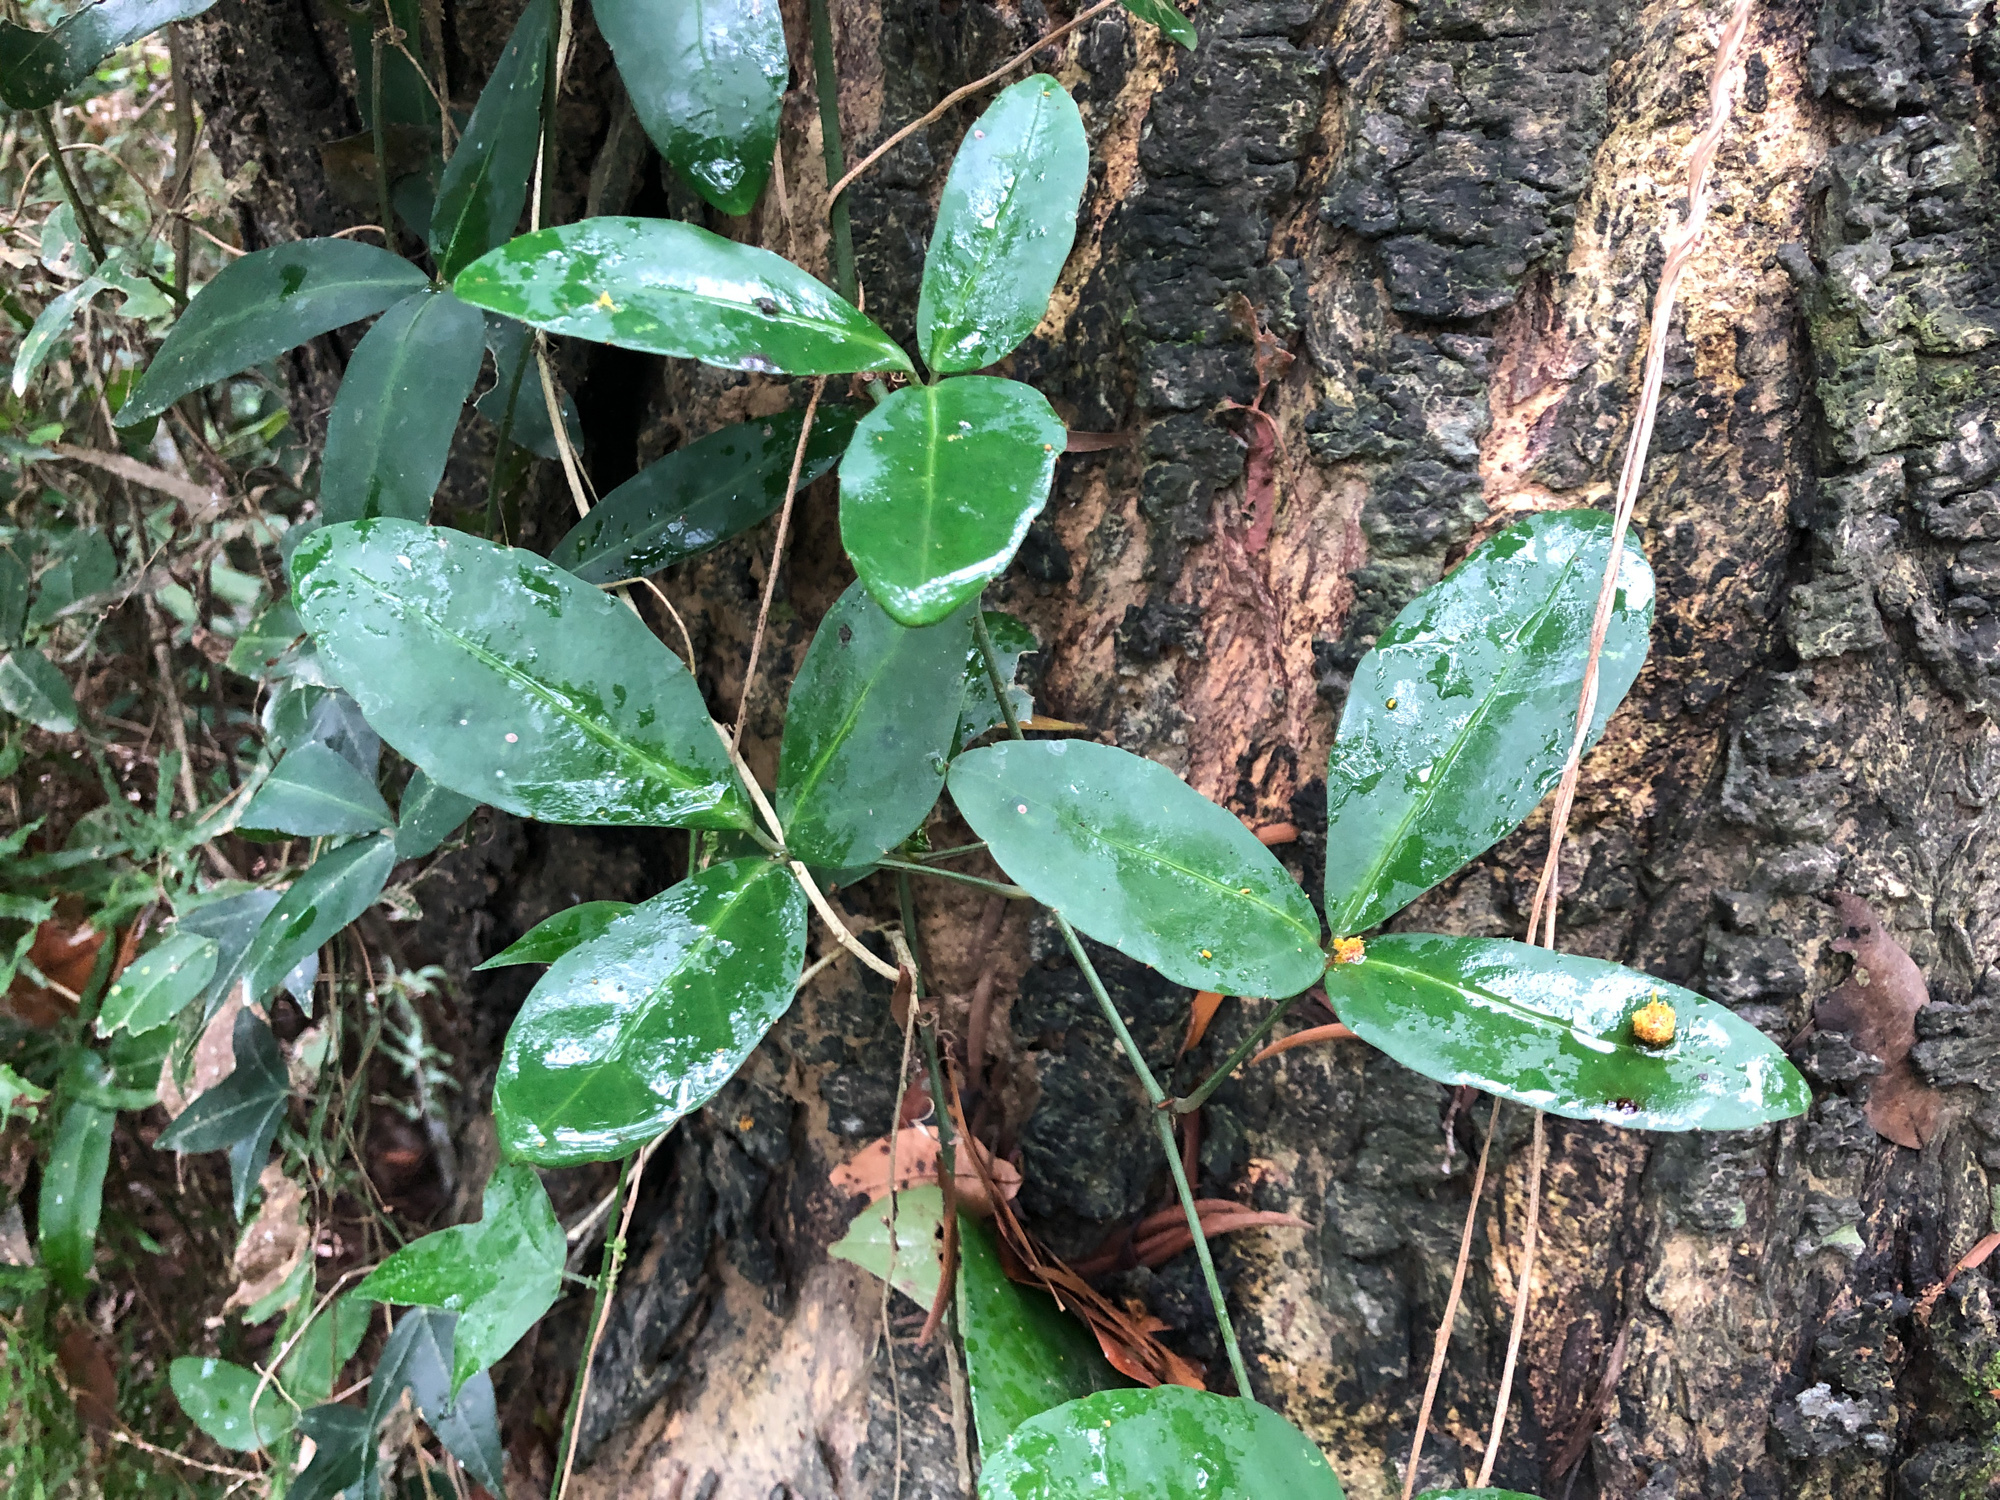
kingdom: Plantae
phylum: Tracheophyta
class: Magnoliopsida
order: Vitales
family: Vitaceae
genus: Tetrastigma
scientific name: Tetrastigma formosanum
